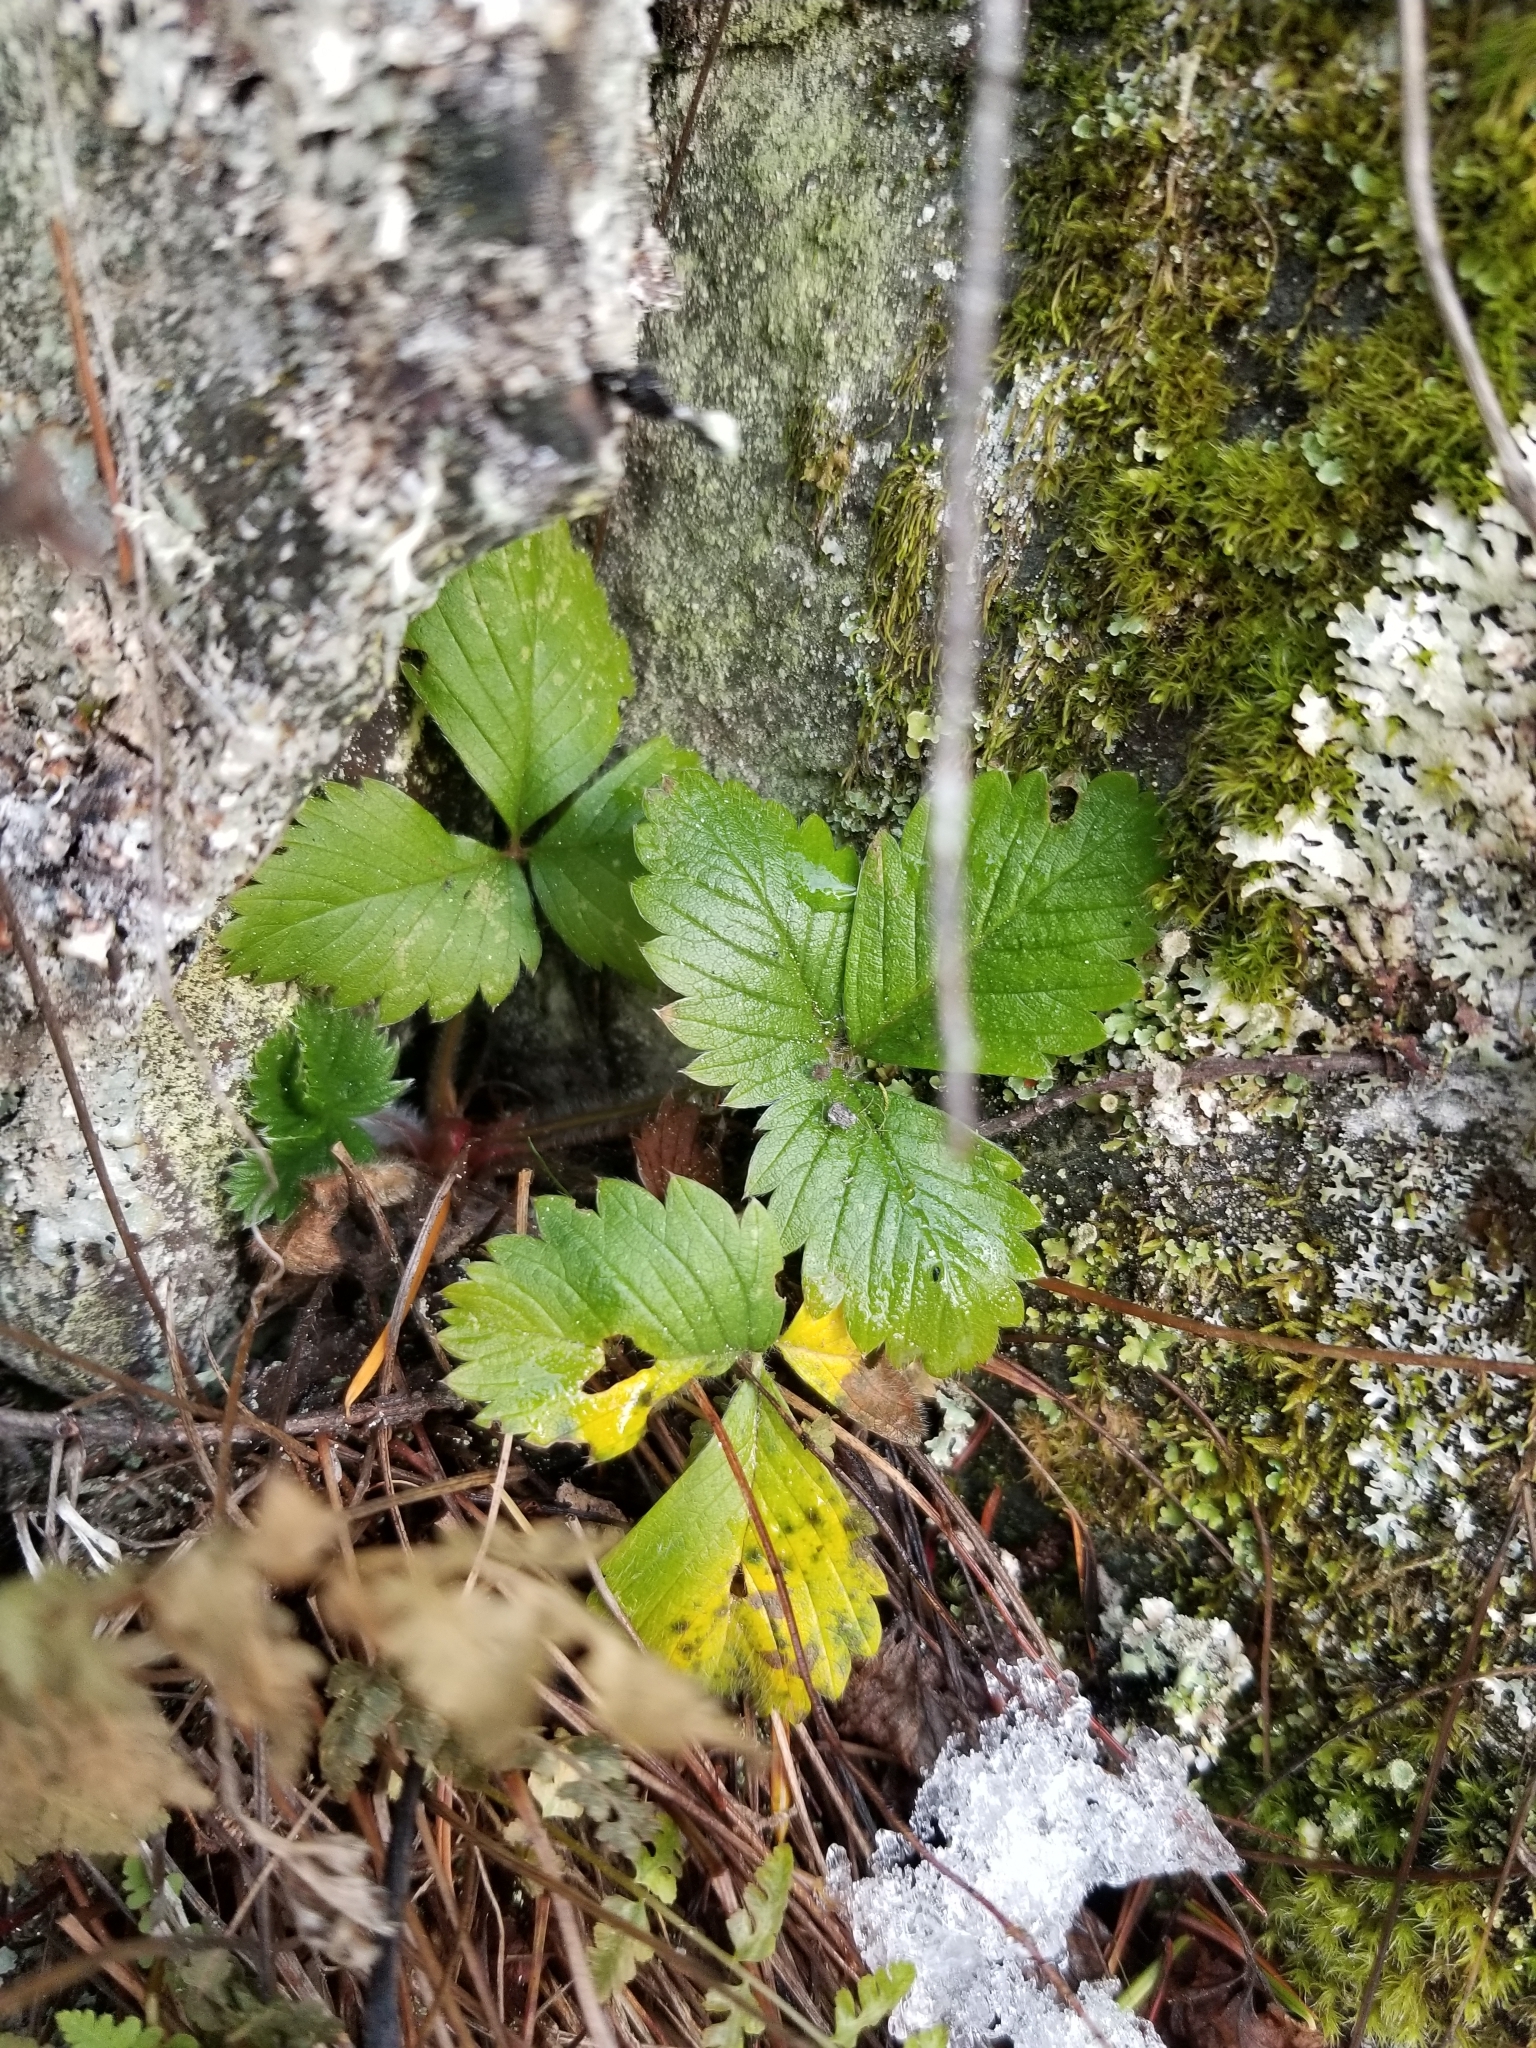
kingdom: Plantae
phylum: Tracheophyta
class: Magnoliopsida
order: Rosales
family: Rosaceae
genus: Fragaria
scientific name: Fragaria vesca
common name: Wild strawberry
